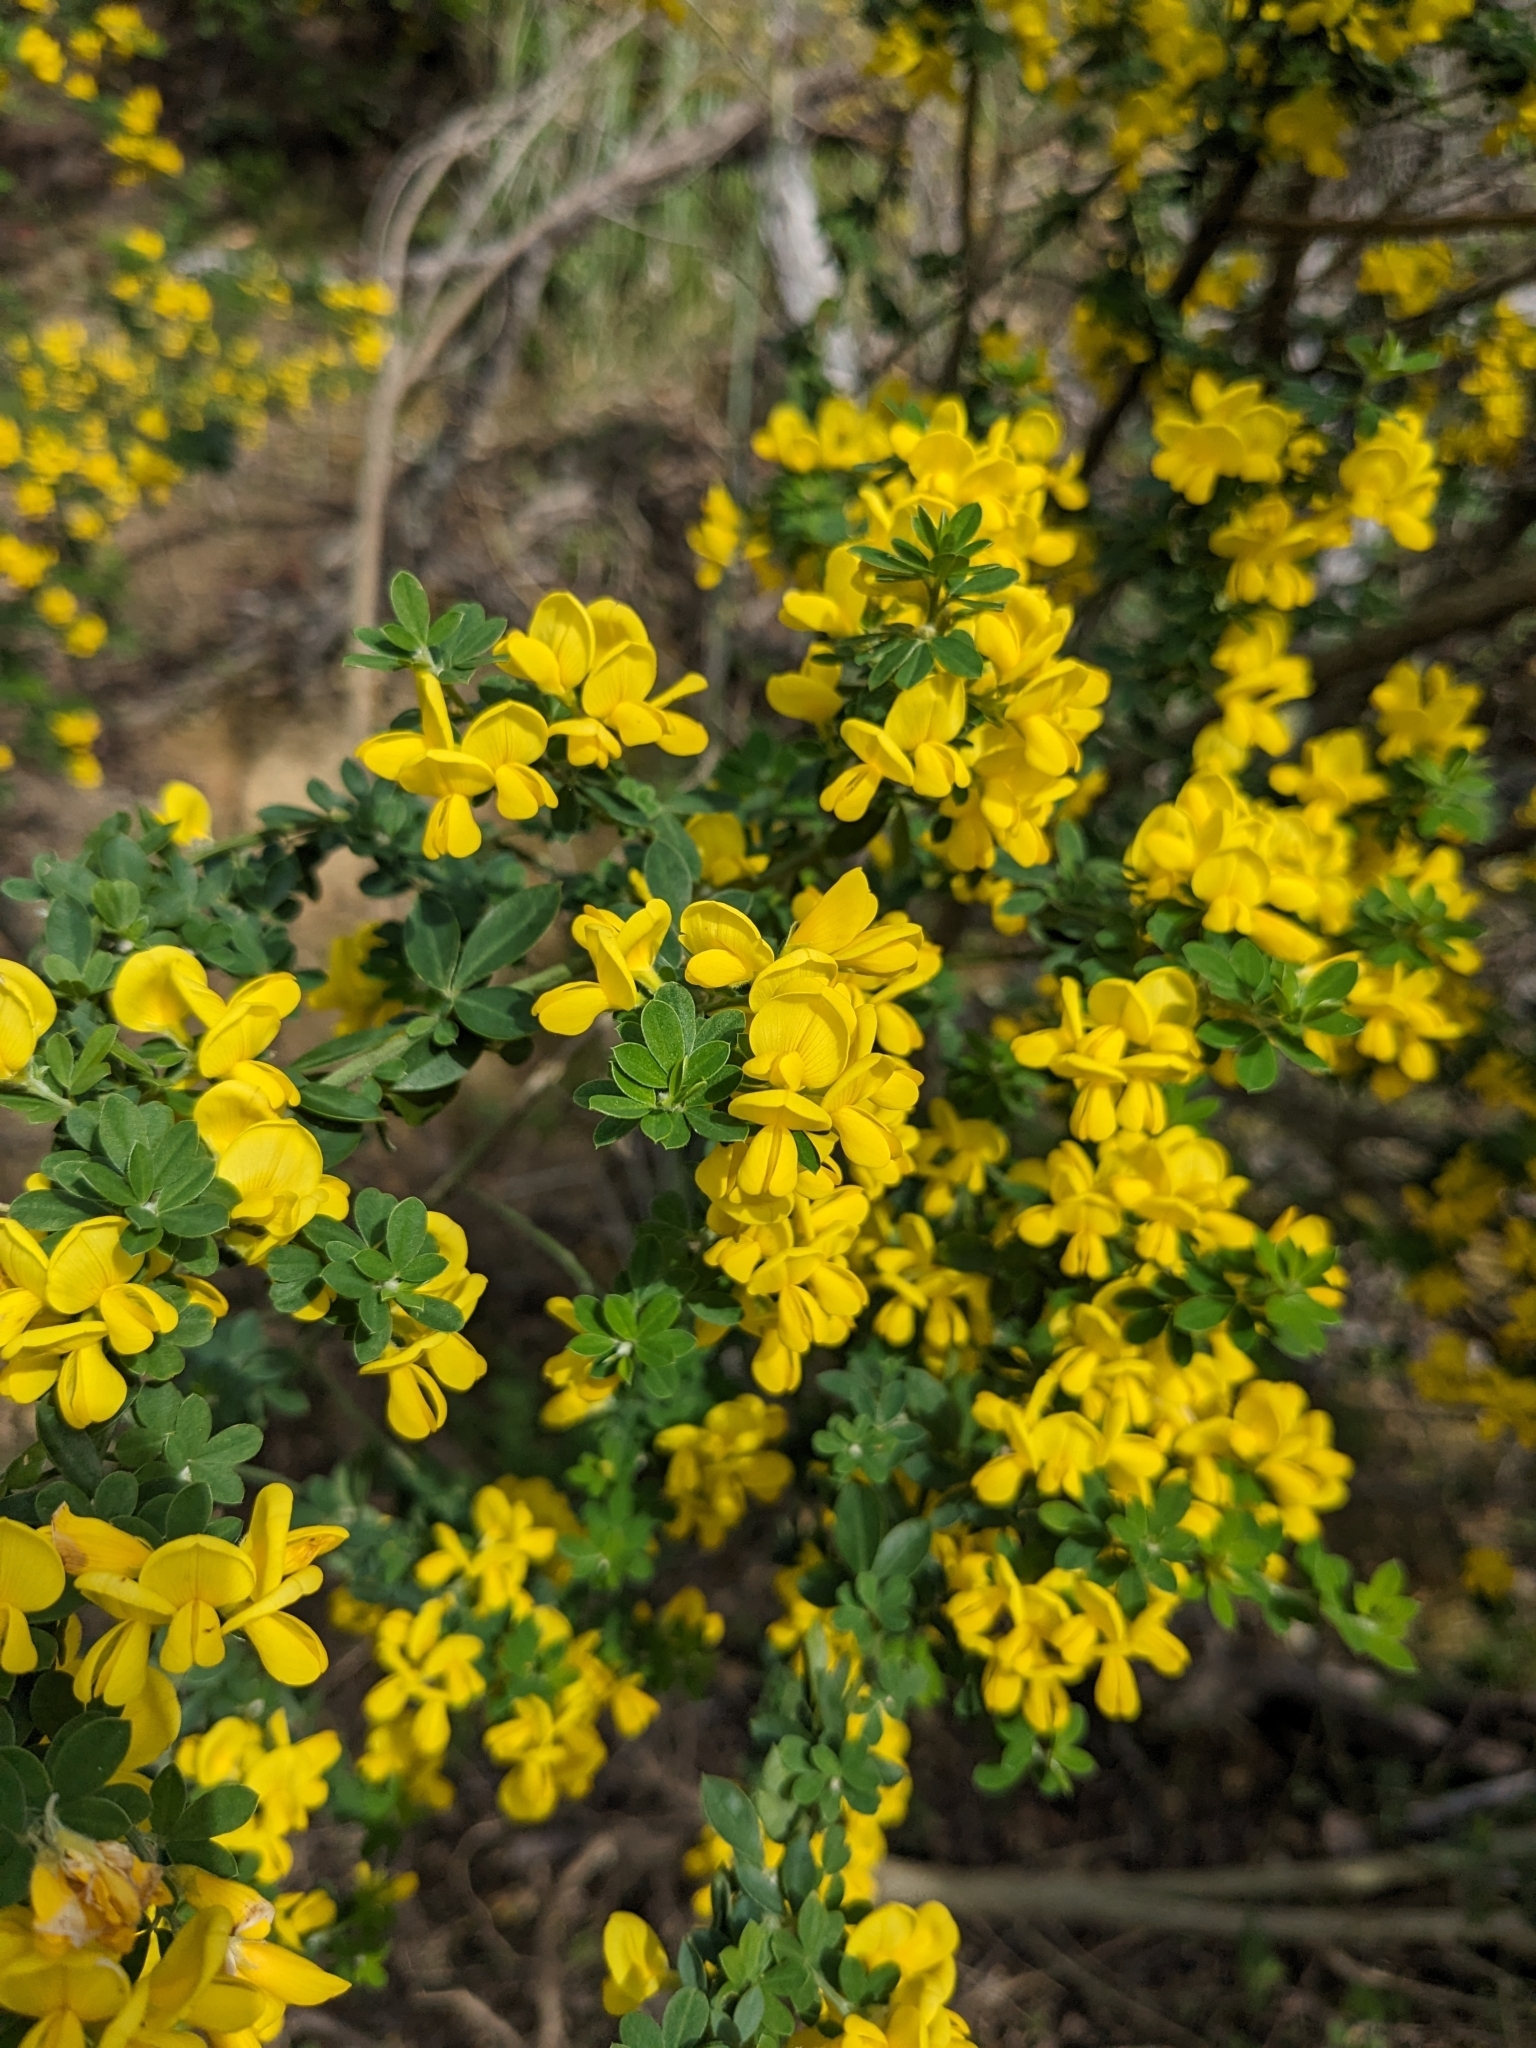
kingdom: Plantae
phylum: Tracheophyta
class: Magnoliopsida
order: Fabales
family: Fabaceae
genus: Genista
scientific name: Genista monspessulana
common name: Montpellier broom
